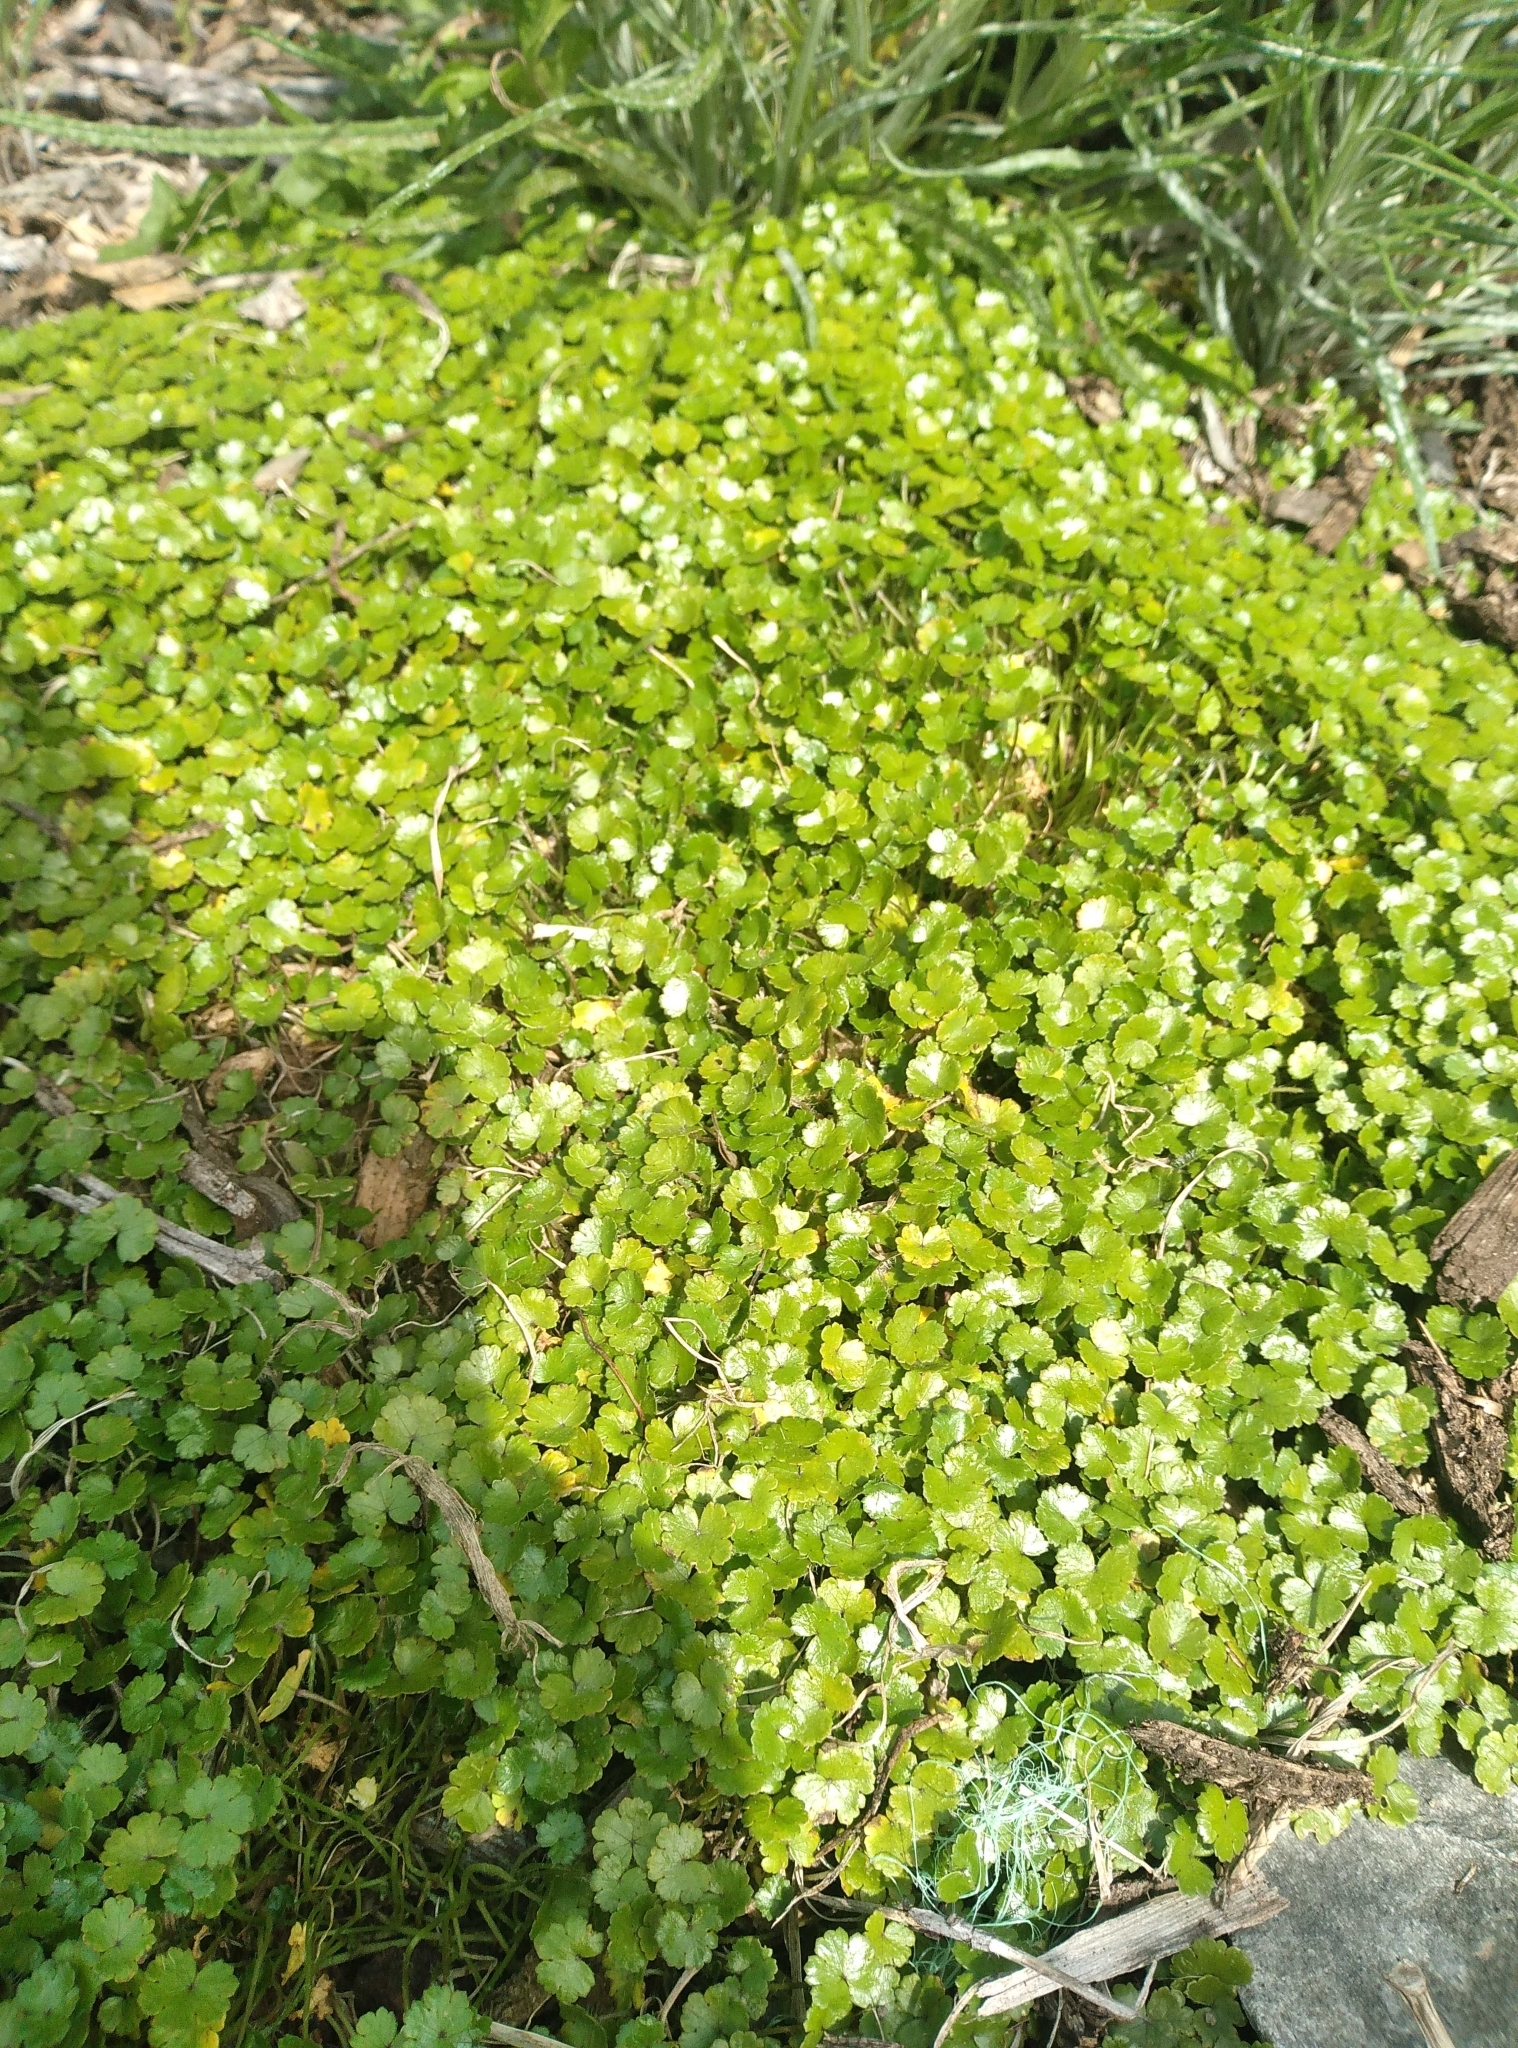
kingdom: Plantae
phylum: Tracheophyta
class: Magnoliopsida
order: Apiales
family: Araliaceae
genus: Hydrocotyle
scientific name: Hydrocotyle microphylla
